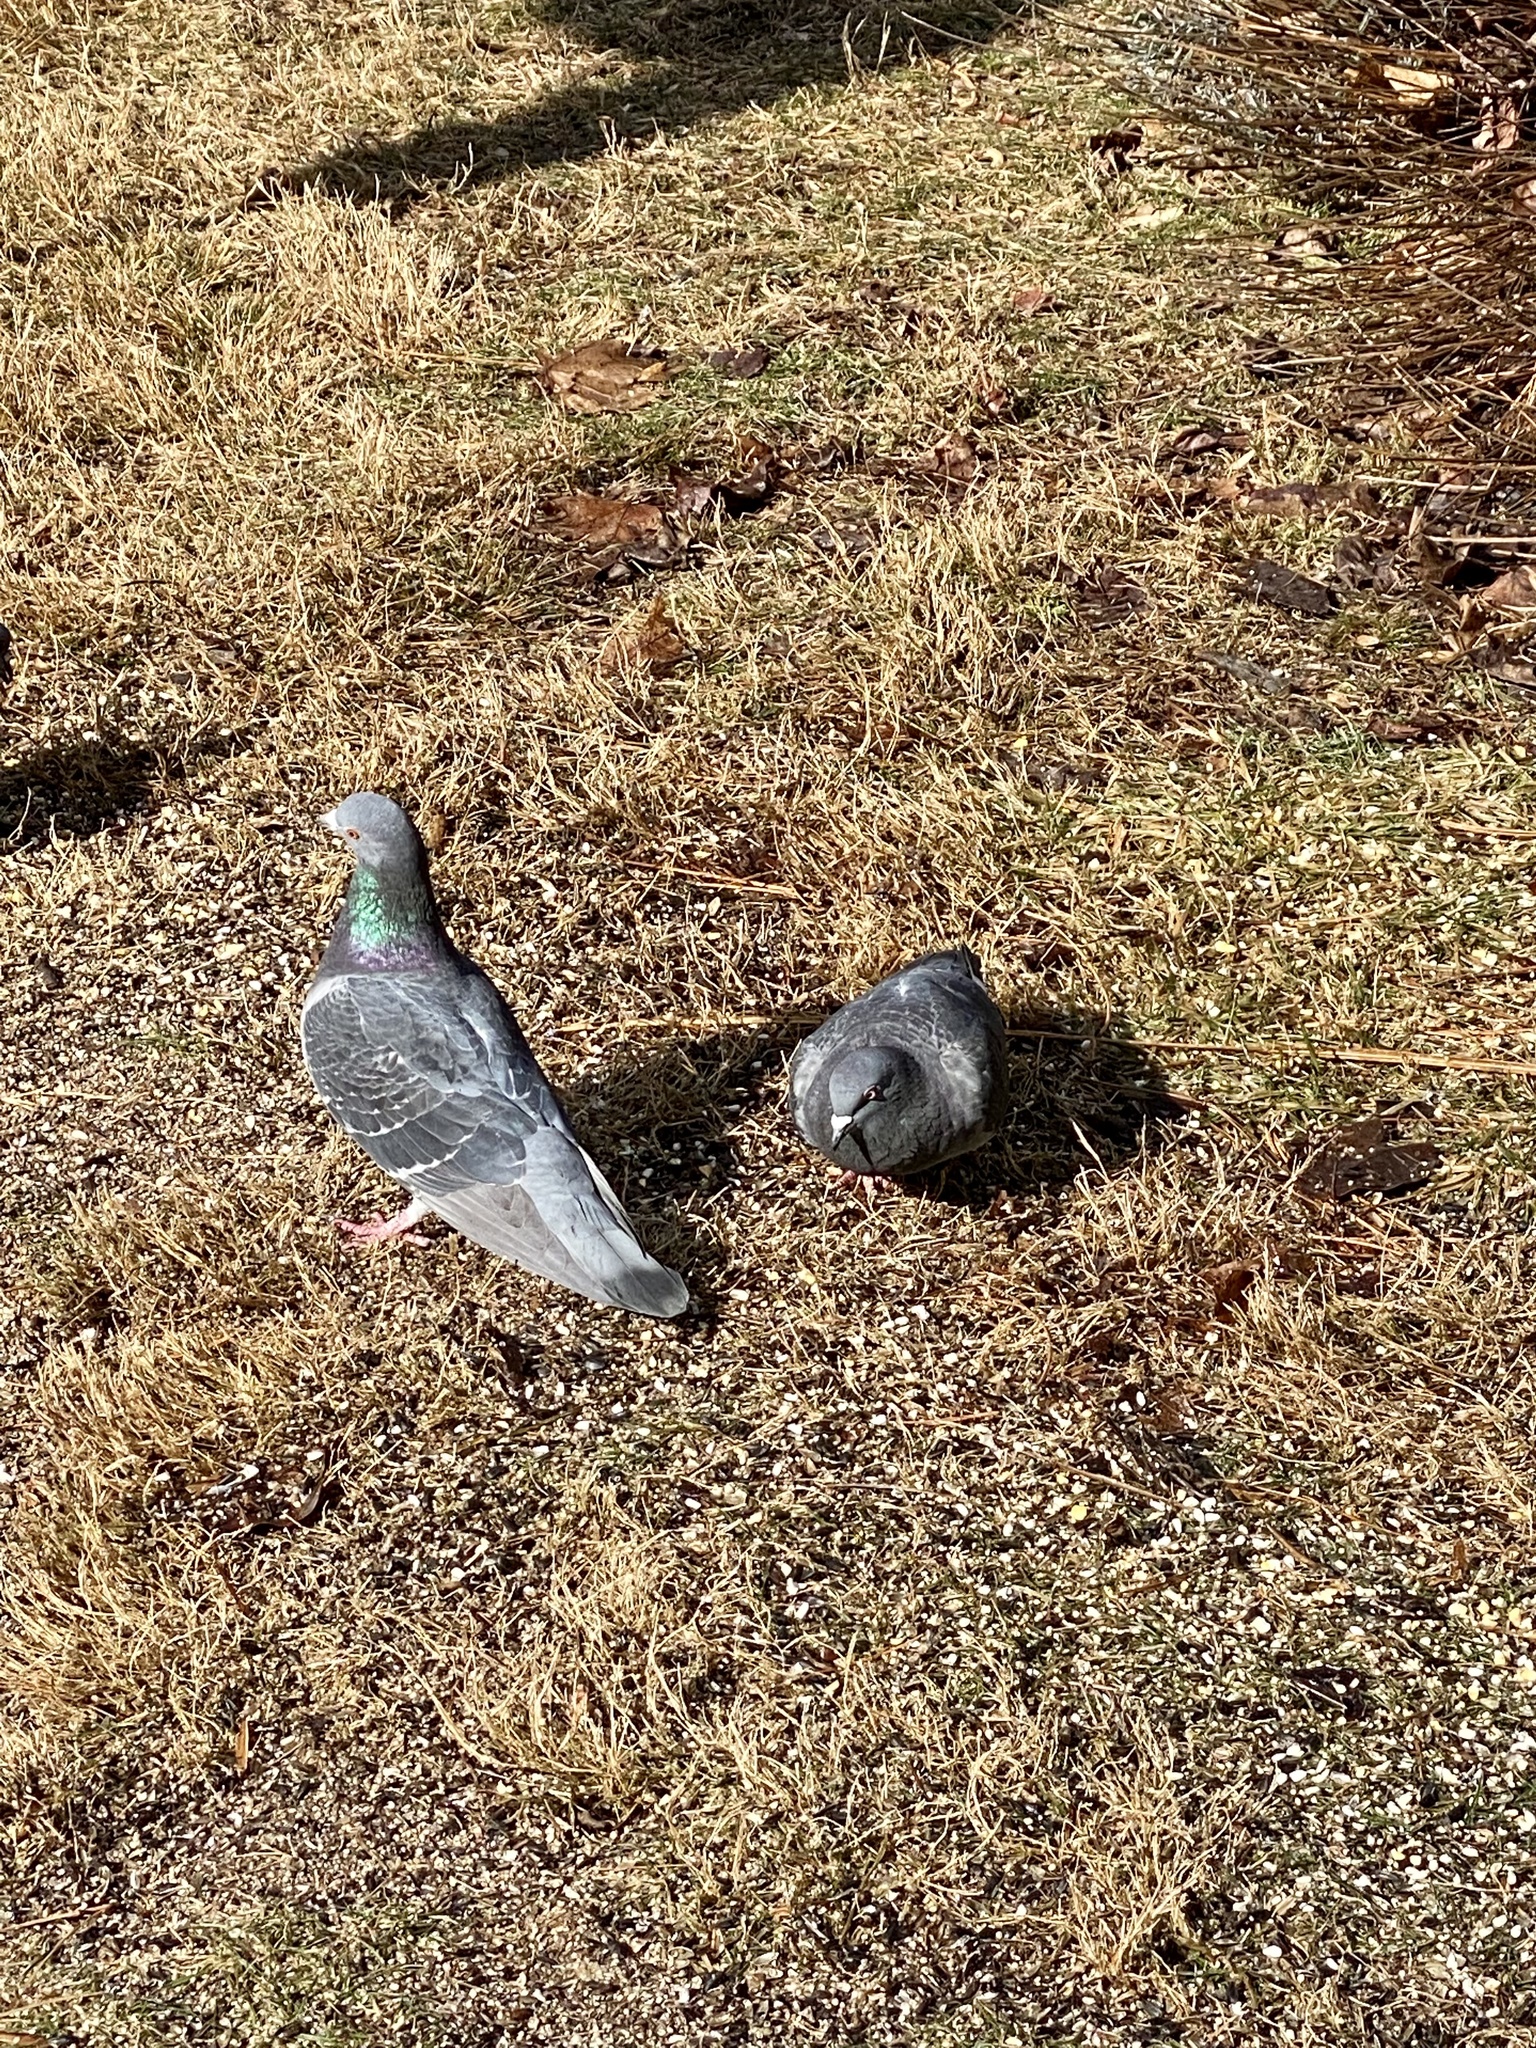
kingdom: Animalia
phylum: Chordata
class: Aves
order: Columbiformes
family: Columbidae
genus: Columba
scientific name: Columba livia
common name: Rock pigeon
